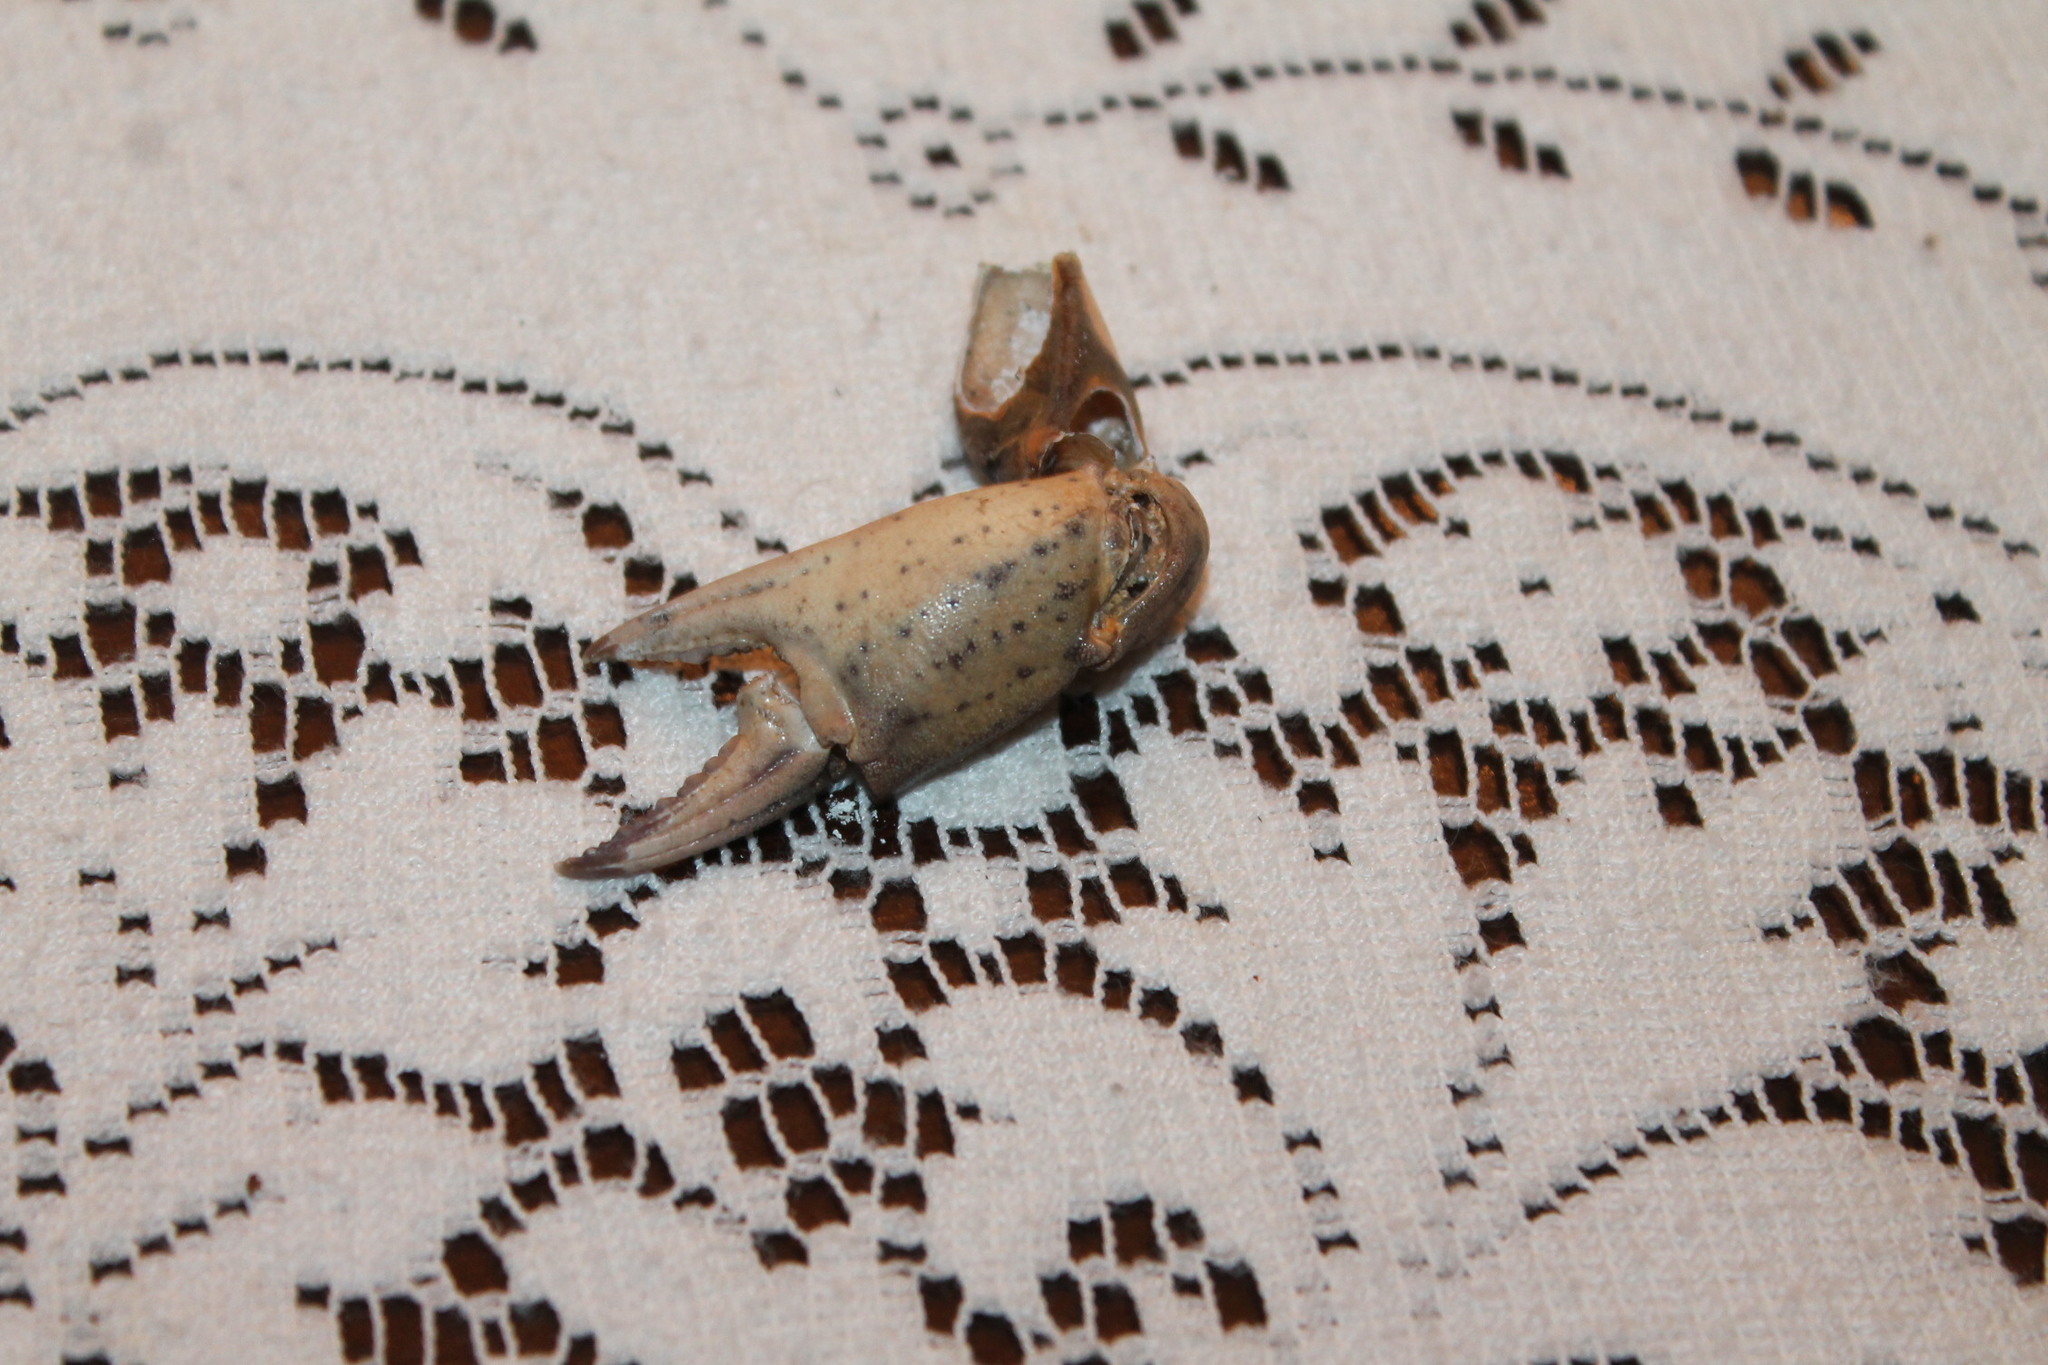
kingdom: Animalia
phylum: Arthropoda
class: Malacostraca
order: Decapoda
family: Carcinidae
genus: Carcinus
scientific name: Carcinus maenas
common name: European green crab
